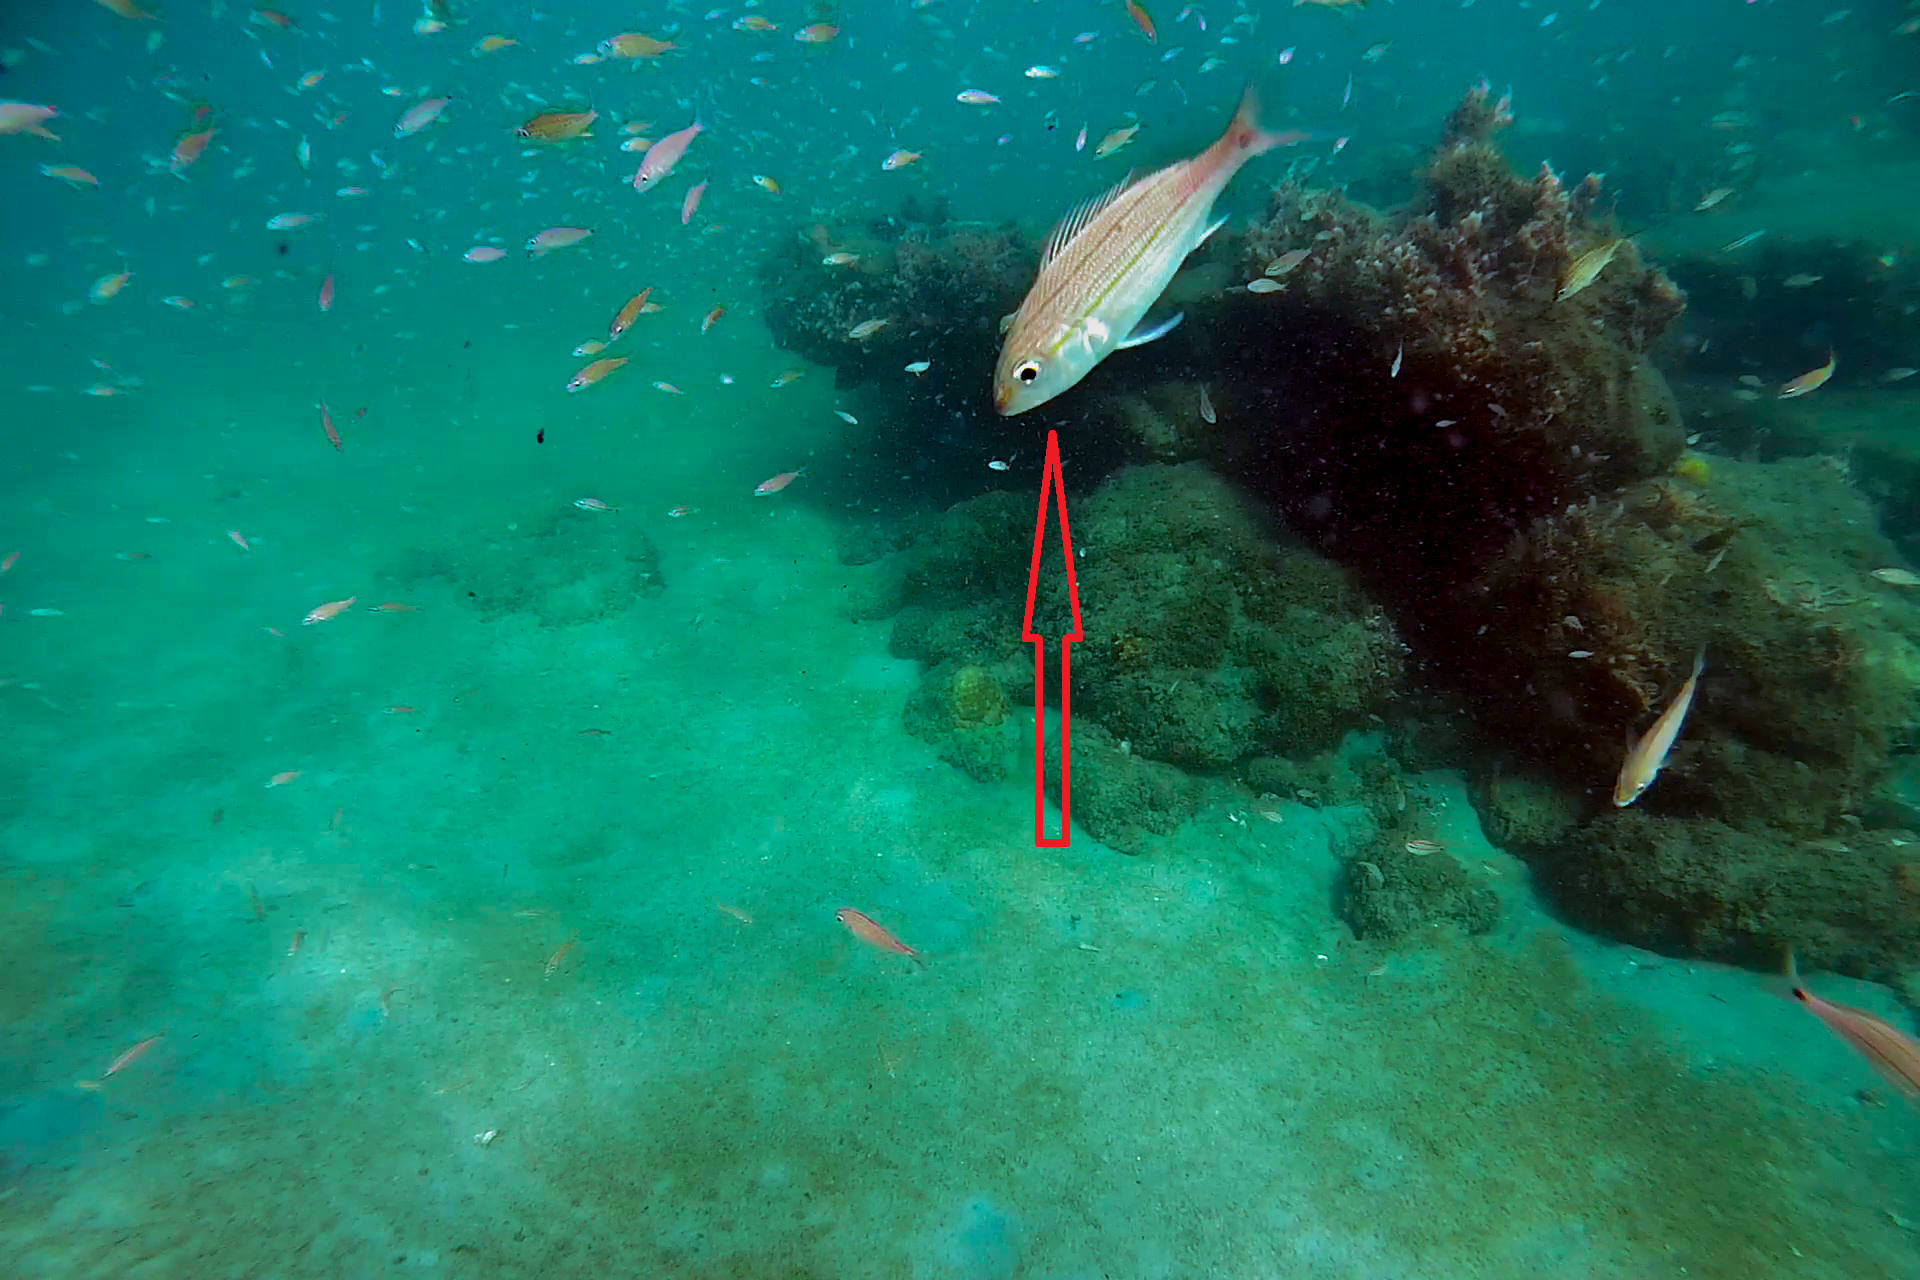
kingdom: Animalia
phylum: Chordata
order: Perciformes
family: Haemulidae
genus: Haemulon
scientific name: Haemulon aurolineatum
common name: Tomtate
